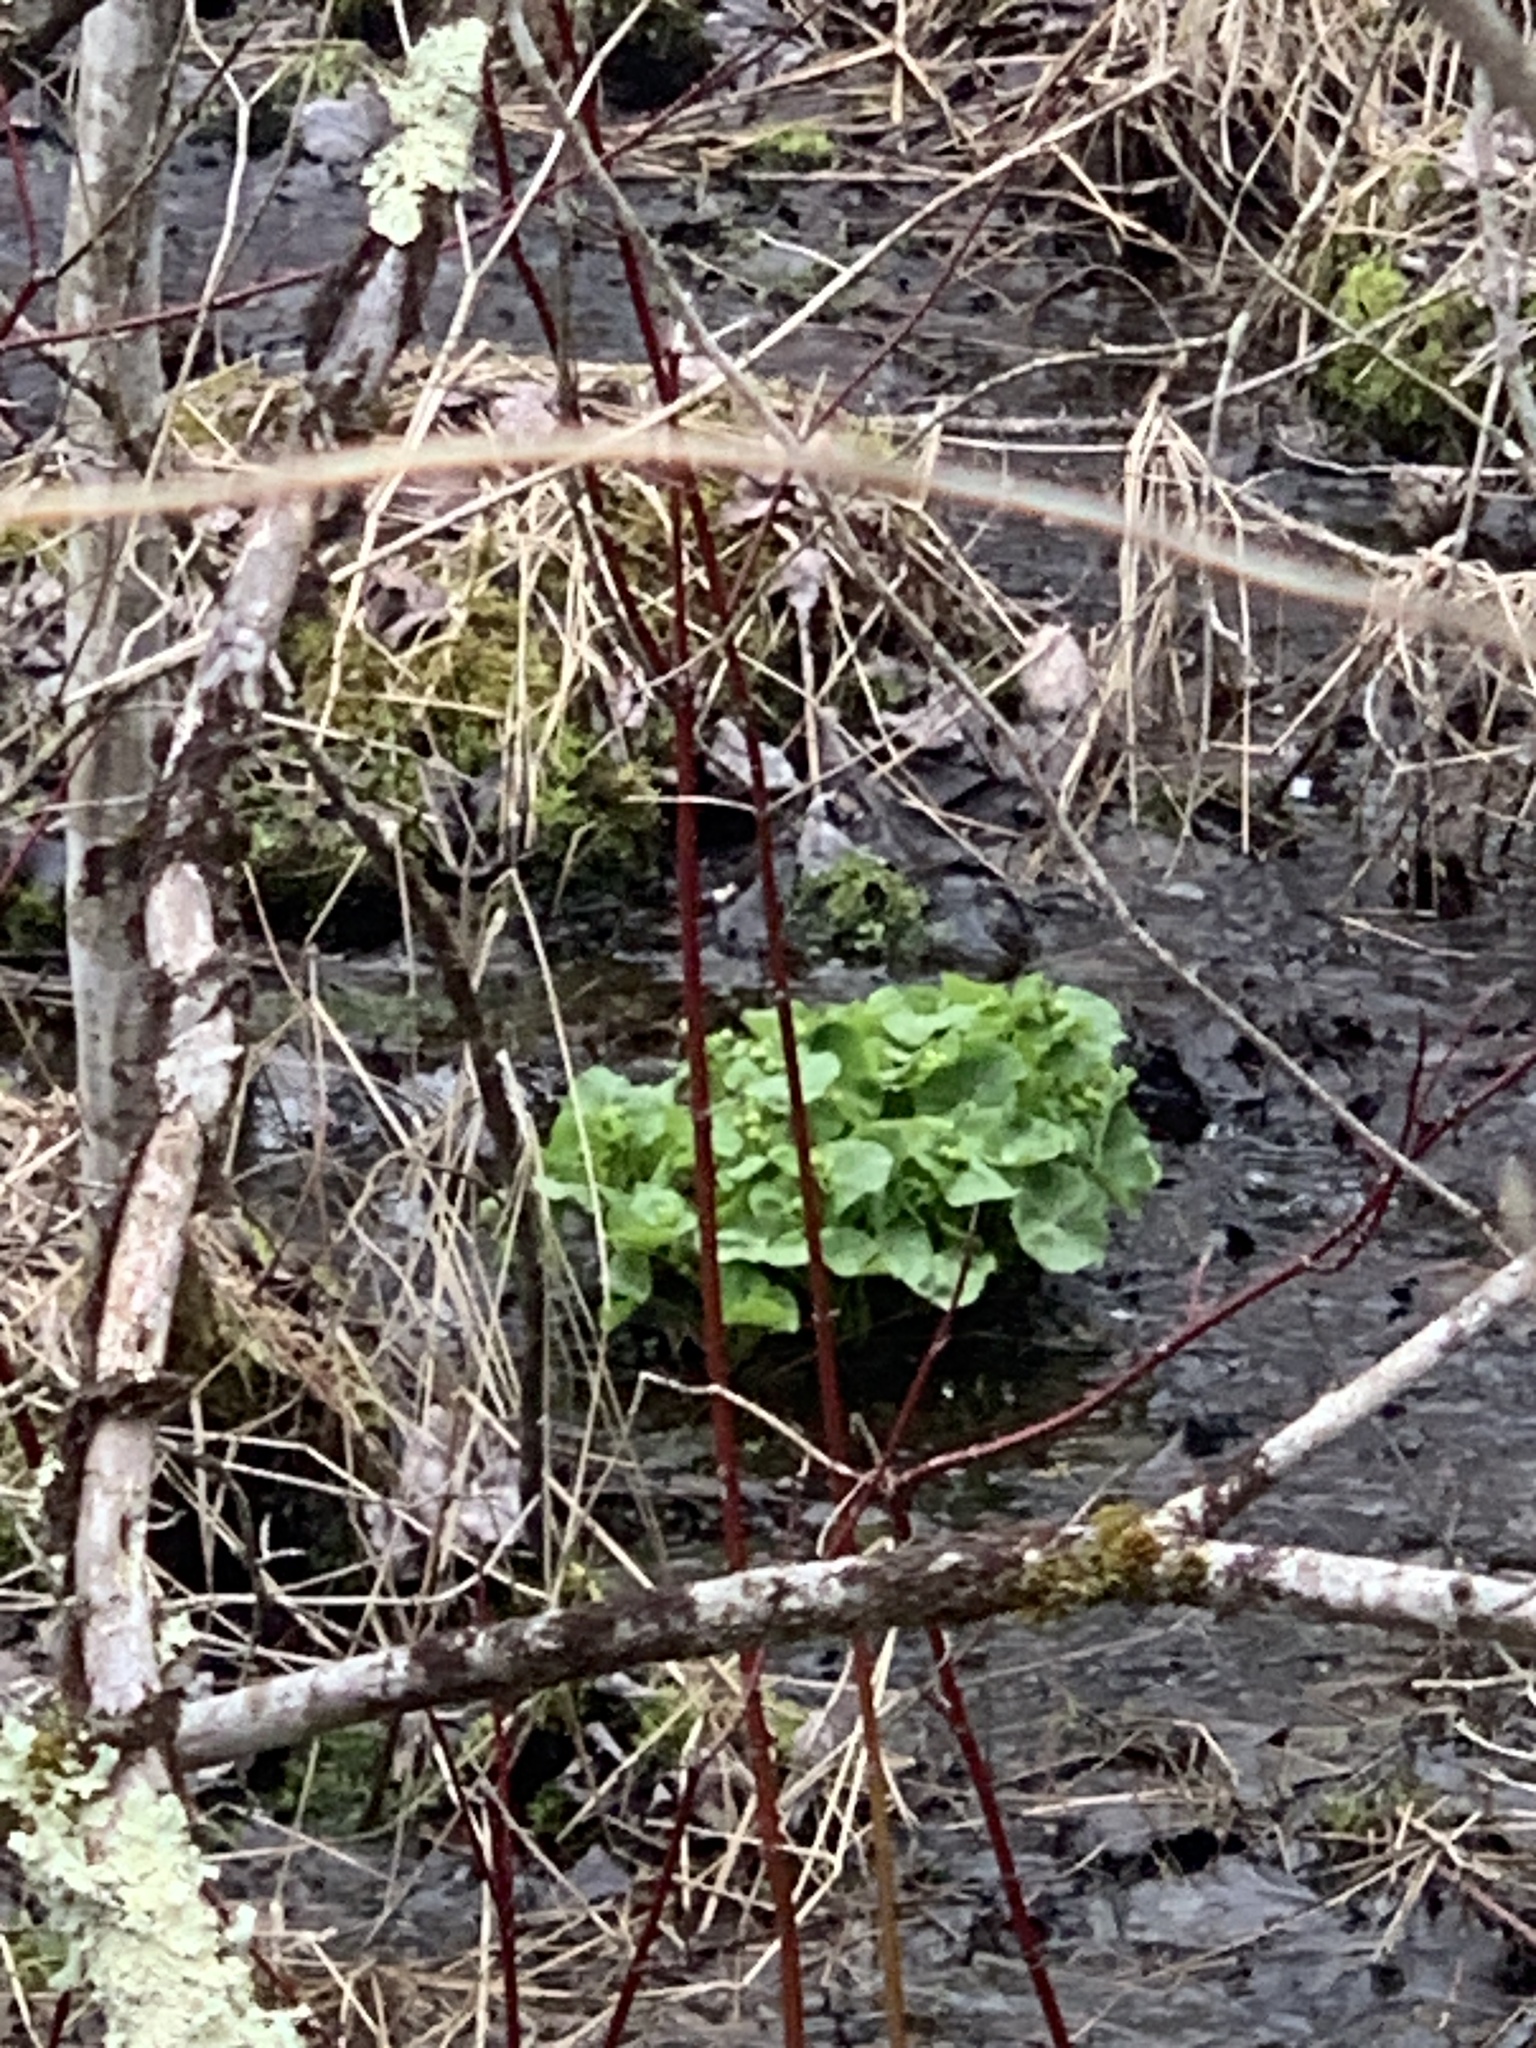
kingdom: Plantae
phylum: Tracheophyta
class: Magnoliopsida
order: Ranunculales
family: Ranunculaceae
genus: Caltha
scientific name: Caltha palustris
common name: Marsh marigold
